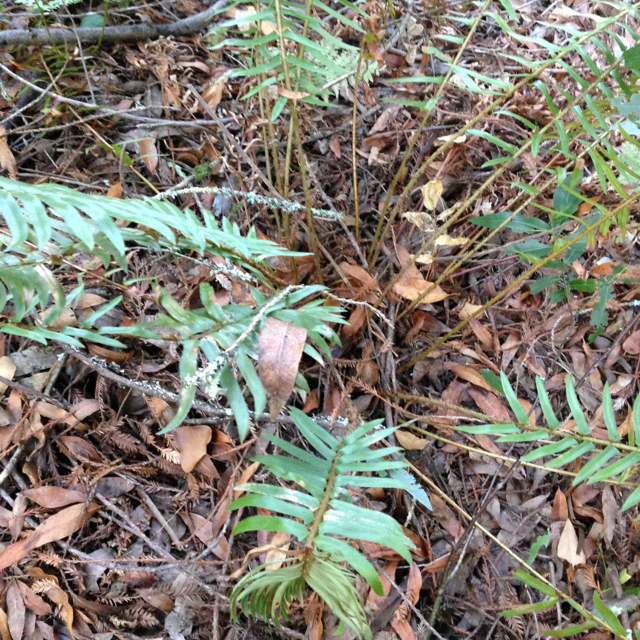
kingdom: Plantae
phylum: Tracheophyta
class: Polypodiopsida
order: Polypodiales
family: Dryopteridaceae
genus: Polystichum
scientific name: Polystichum munitum
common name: Western sword-fern
